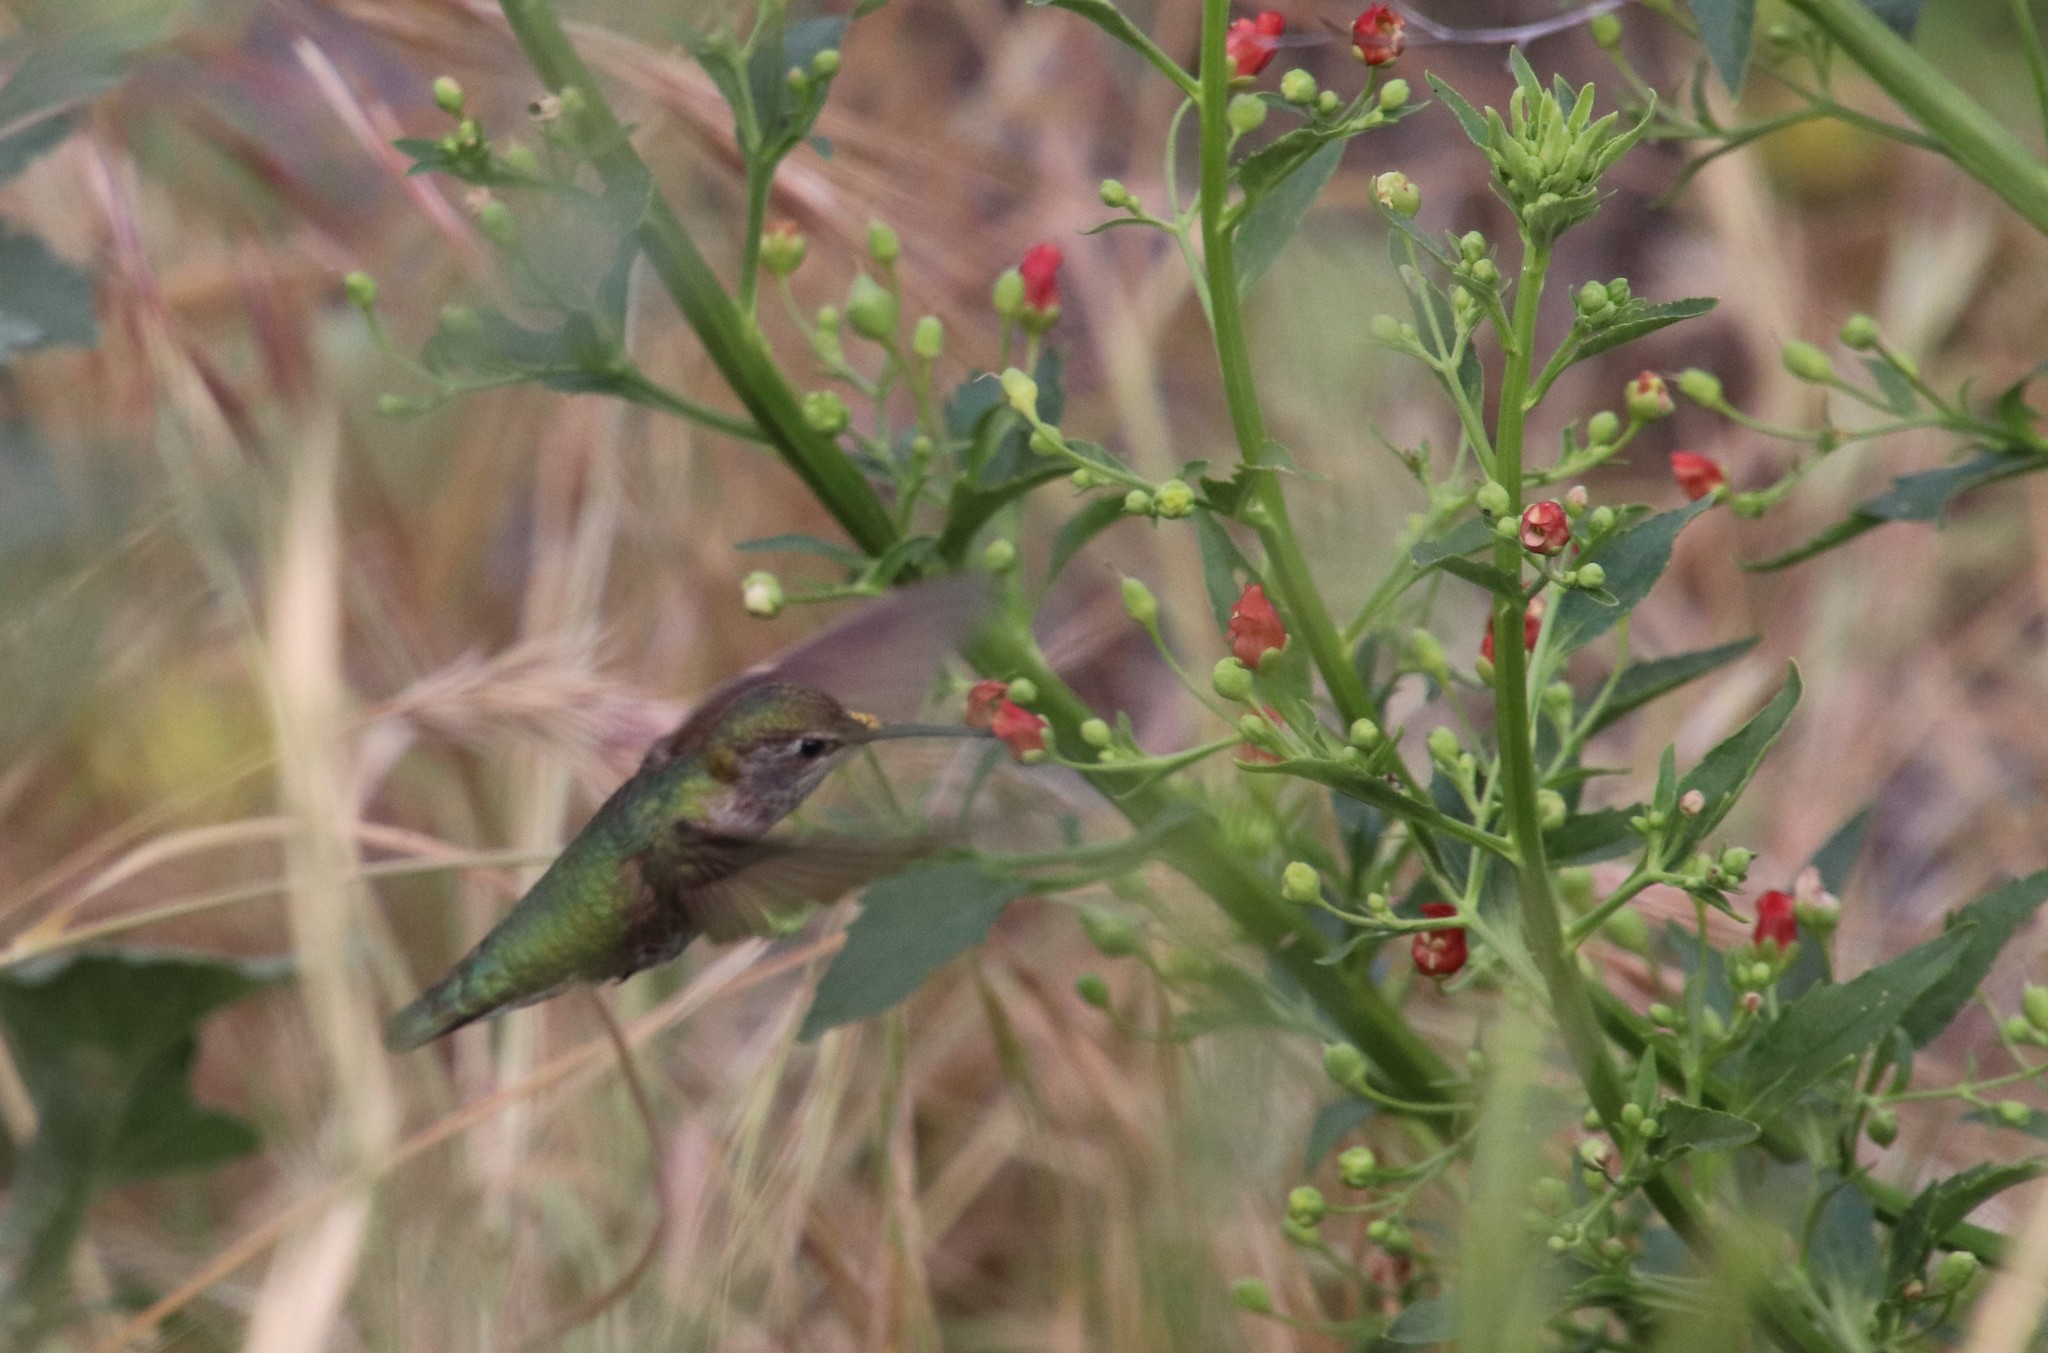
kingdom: Animalia
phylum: Chordata
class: Aves
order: Apodiformes
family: Trochilidae
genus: Calypte
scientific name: Calypte anna
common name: Anna's hummingbird
